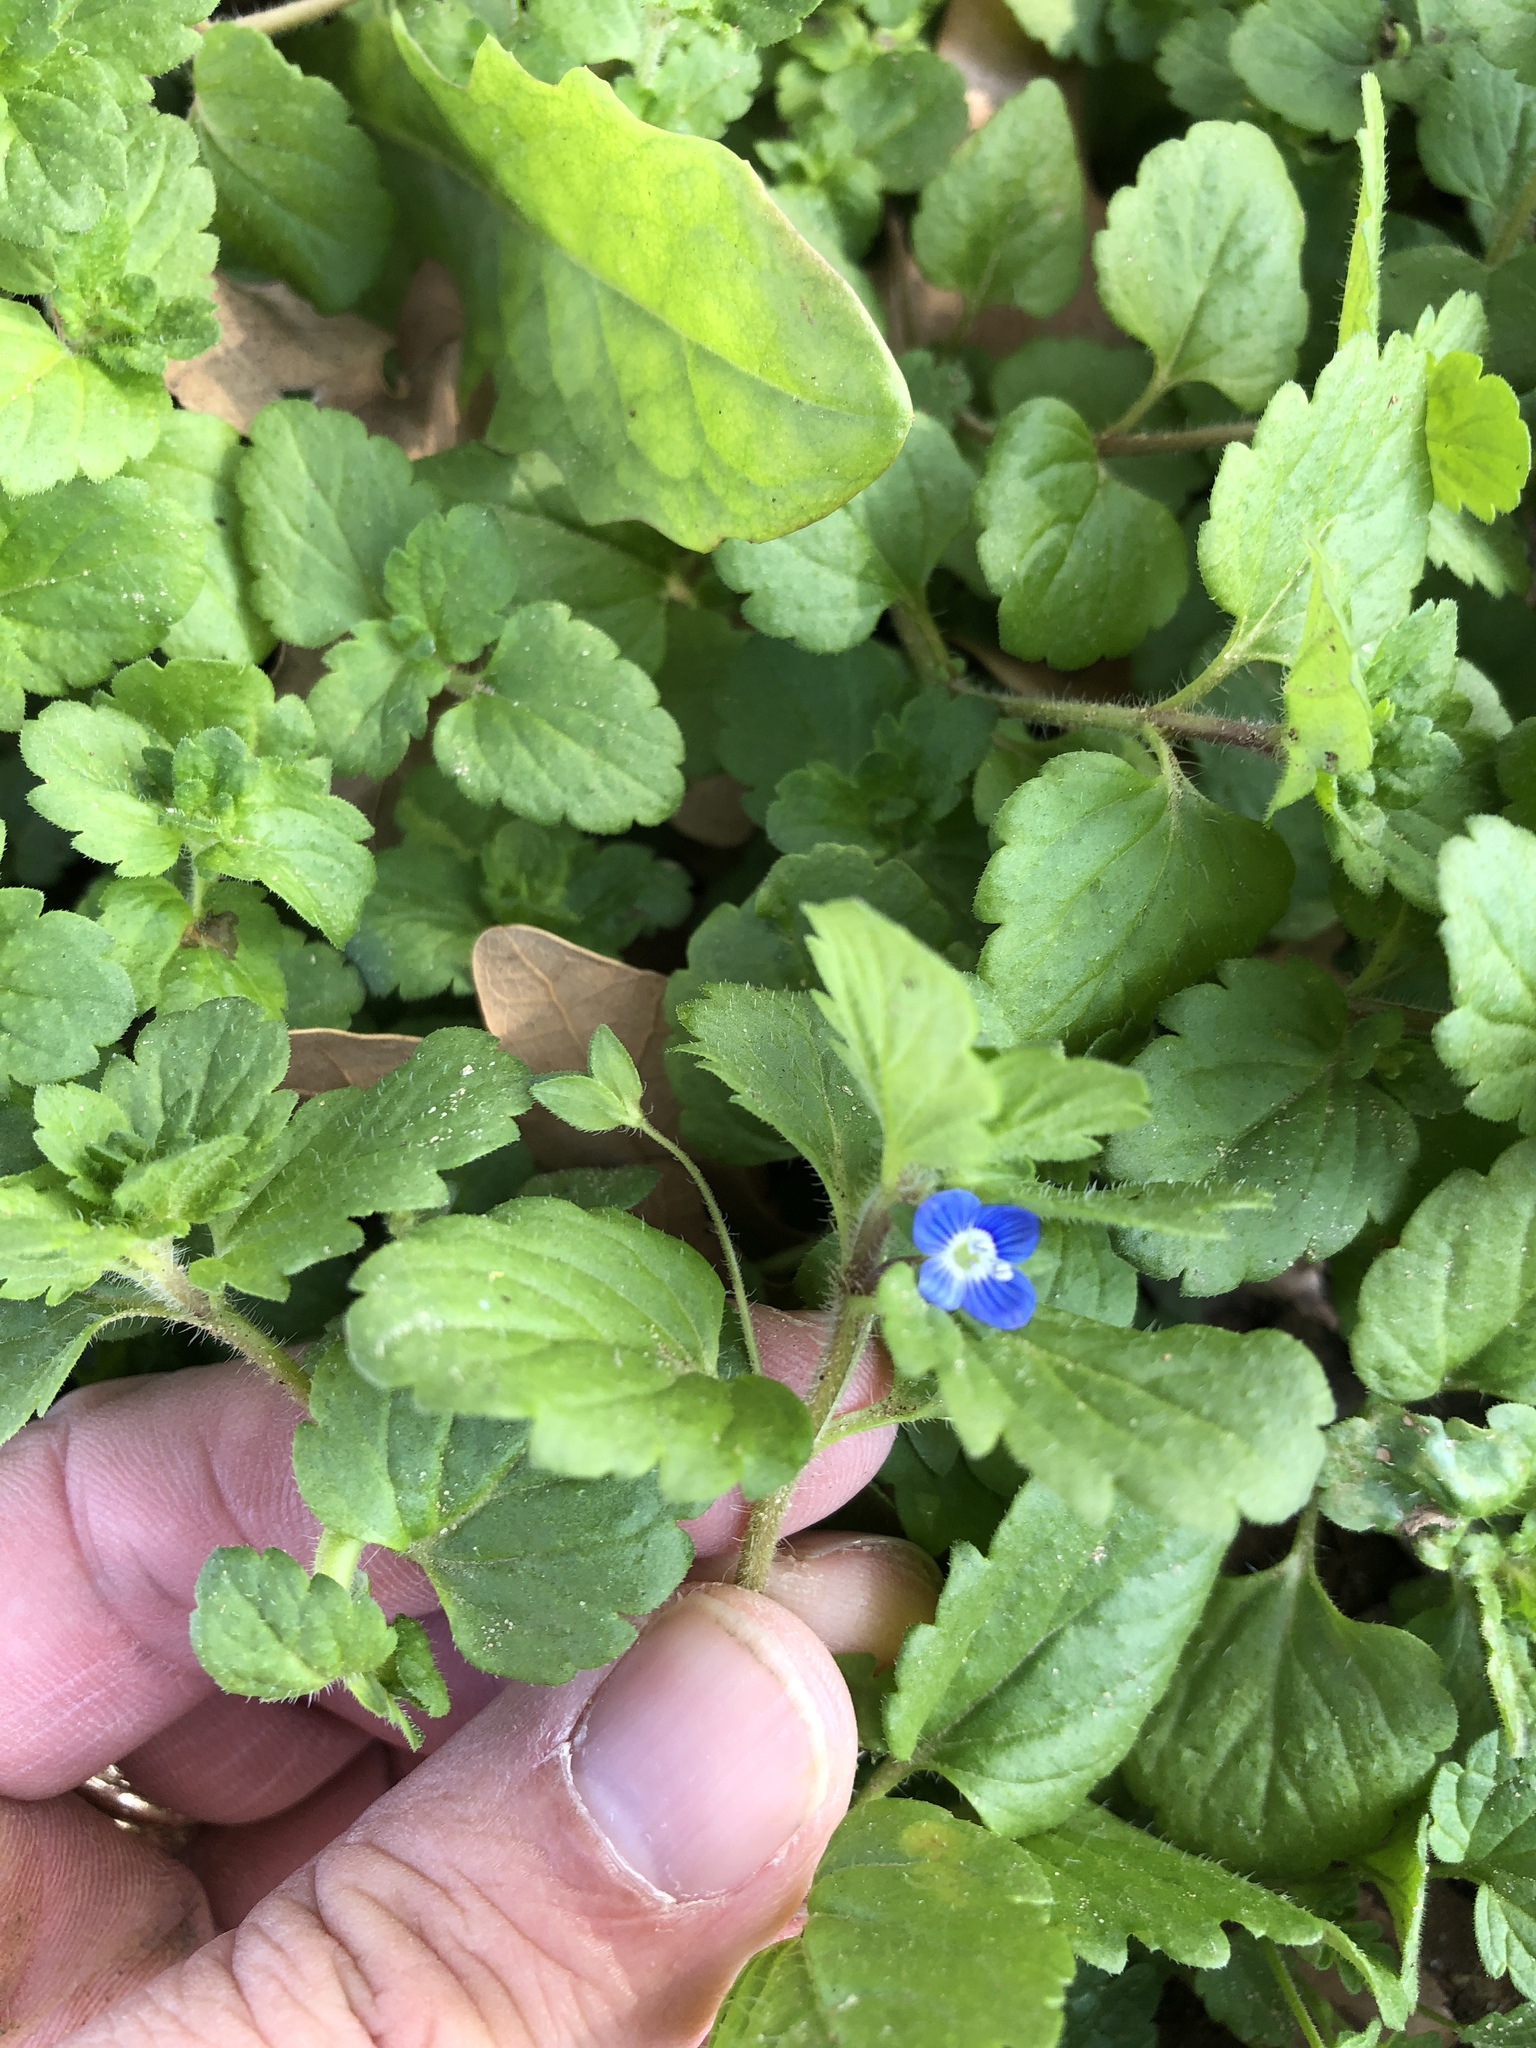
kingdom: Plantae
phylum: Tracheophyta
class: Magnoliopsida
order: Lamiales
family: Plantaginaceae
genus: Veronica
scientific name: Veronica persica
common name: Common field-speedwell
